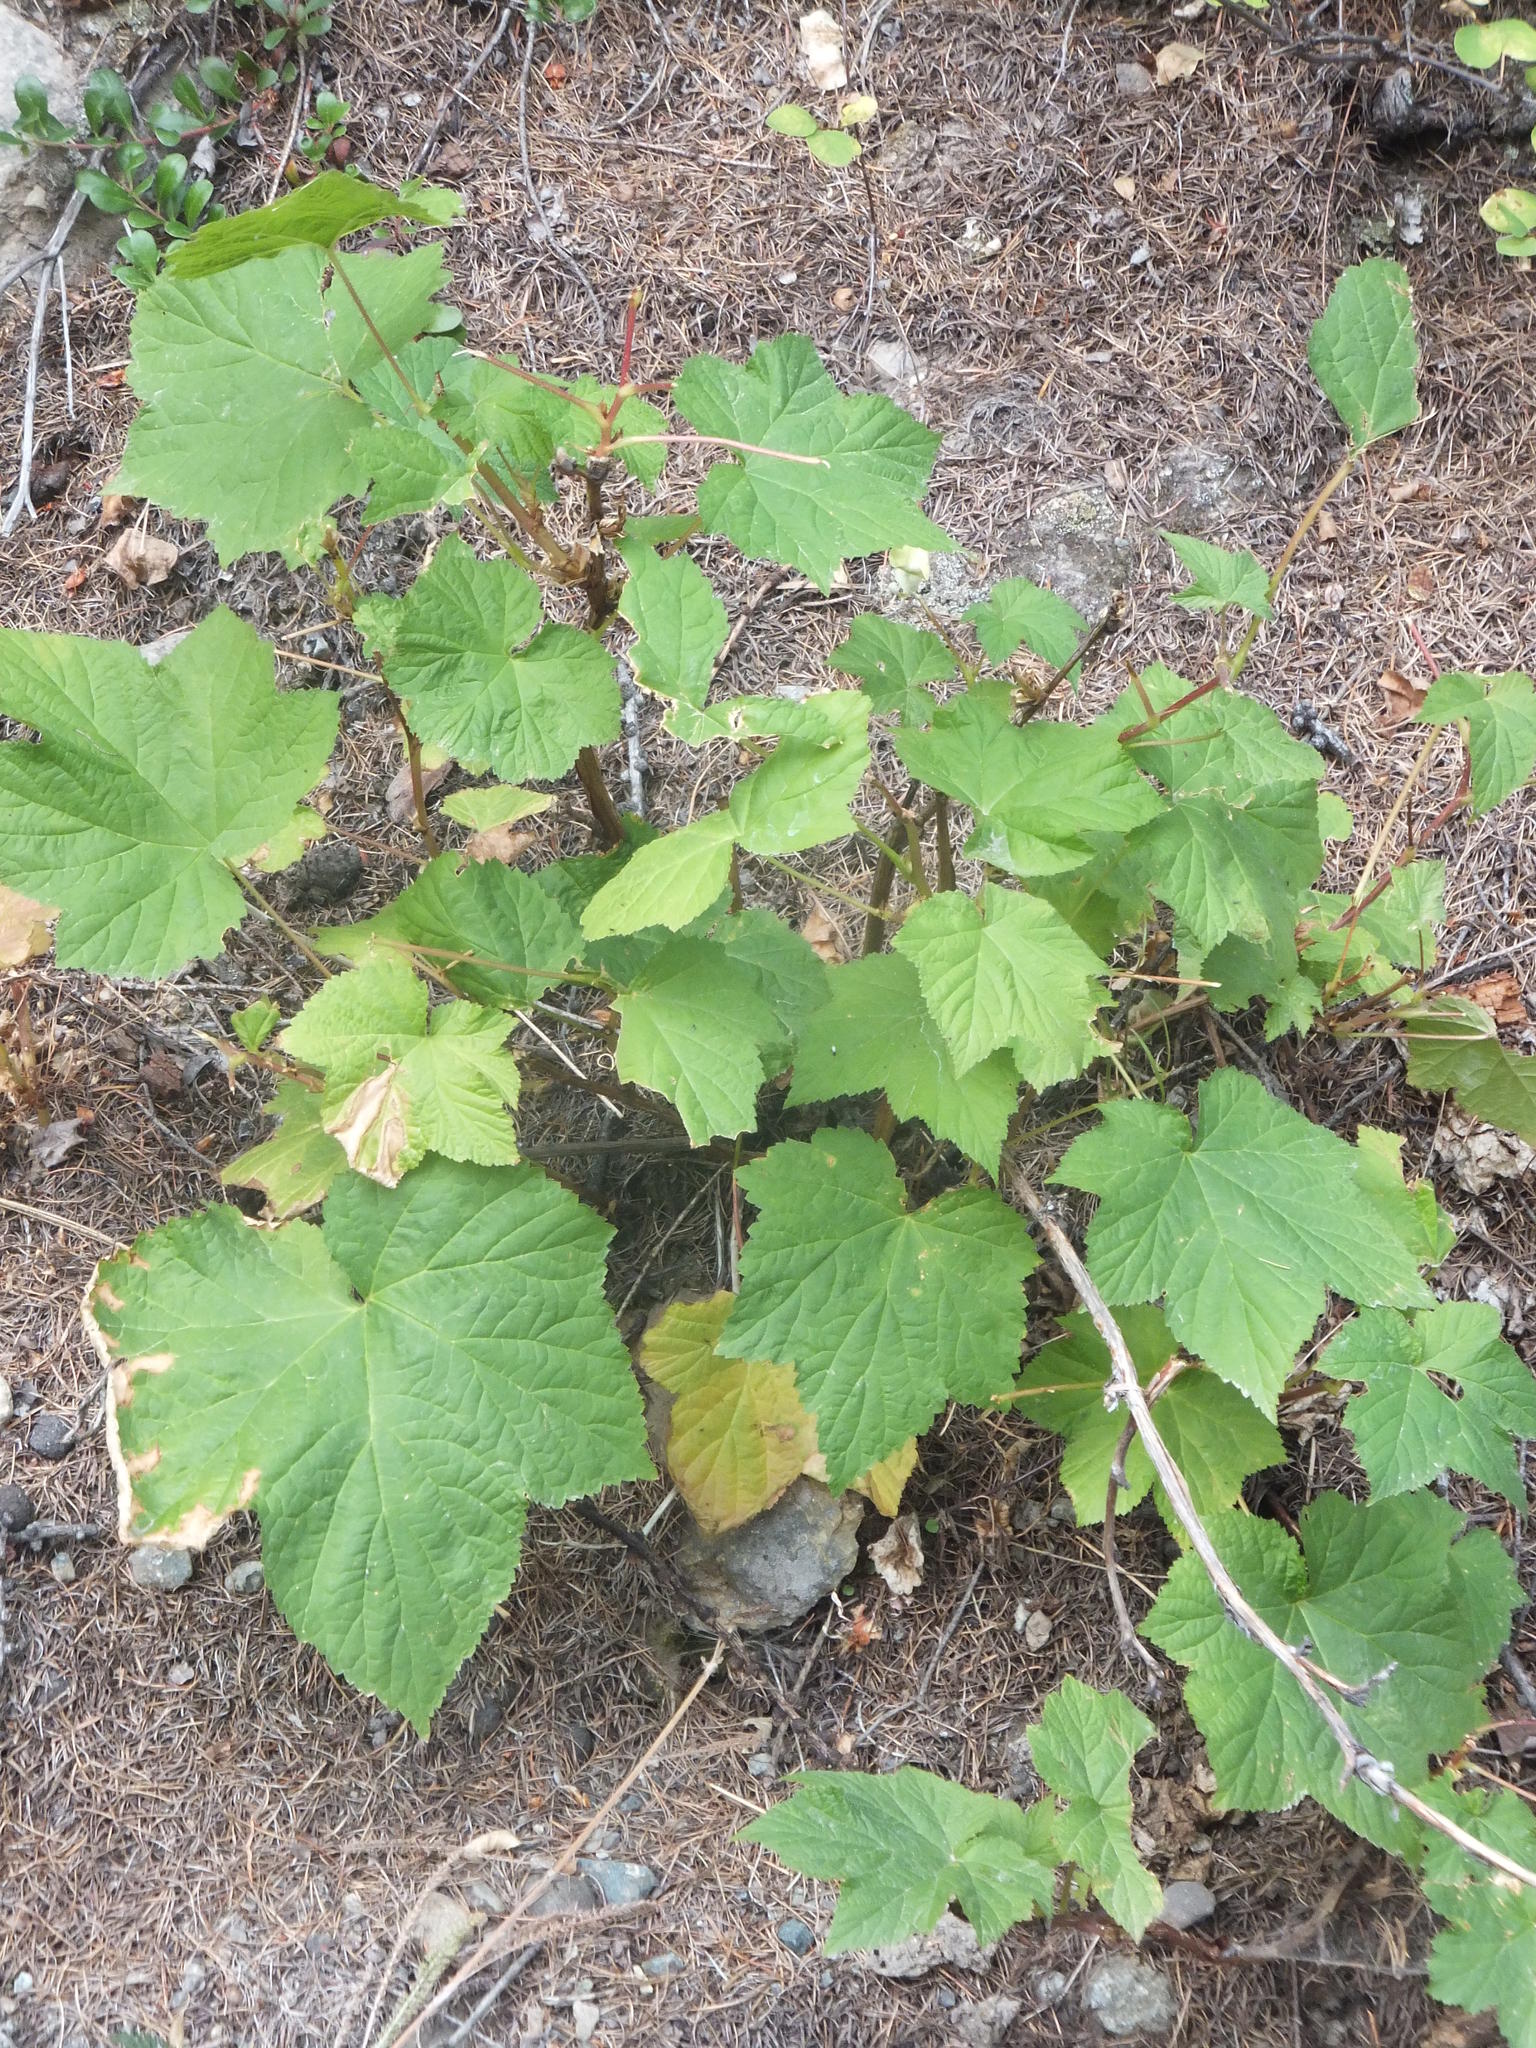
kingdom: Plantae
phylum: Tracheophyta
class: Magnoliopsida
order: Rosales
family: Rosaceae
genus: Rubus
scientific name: Rubus parviflorus
